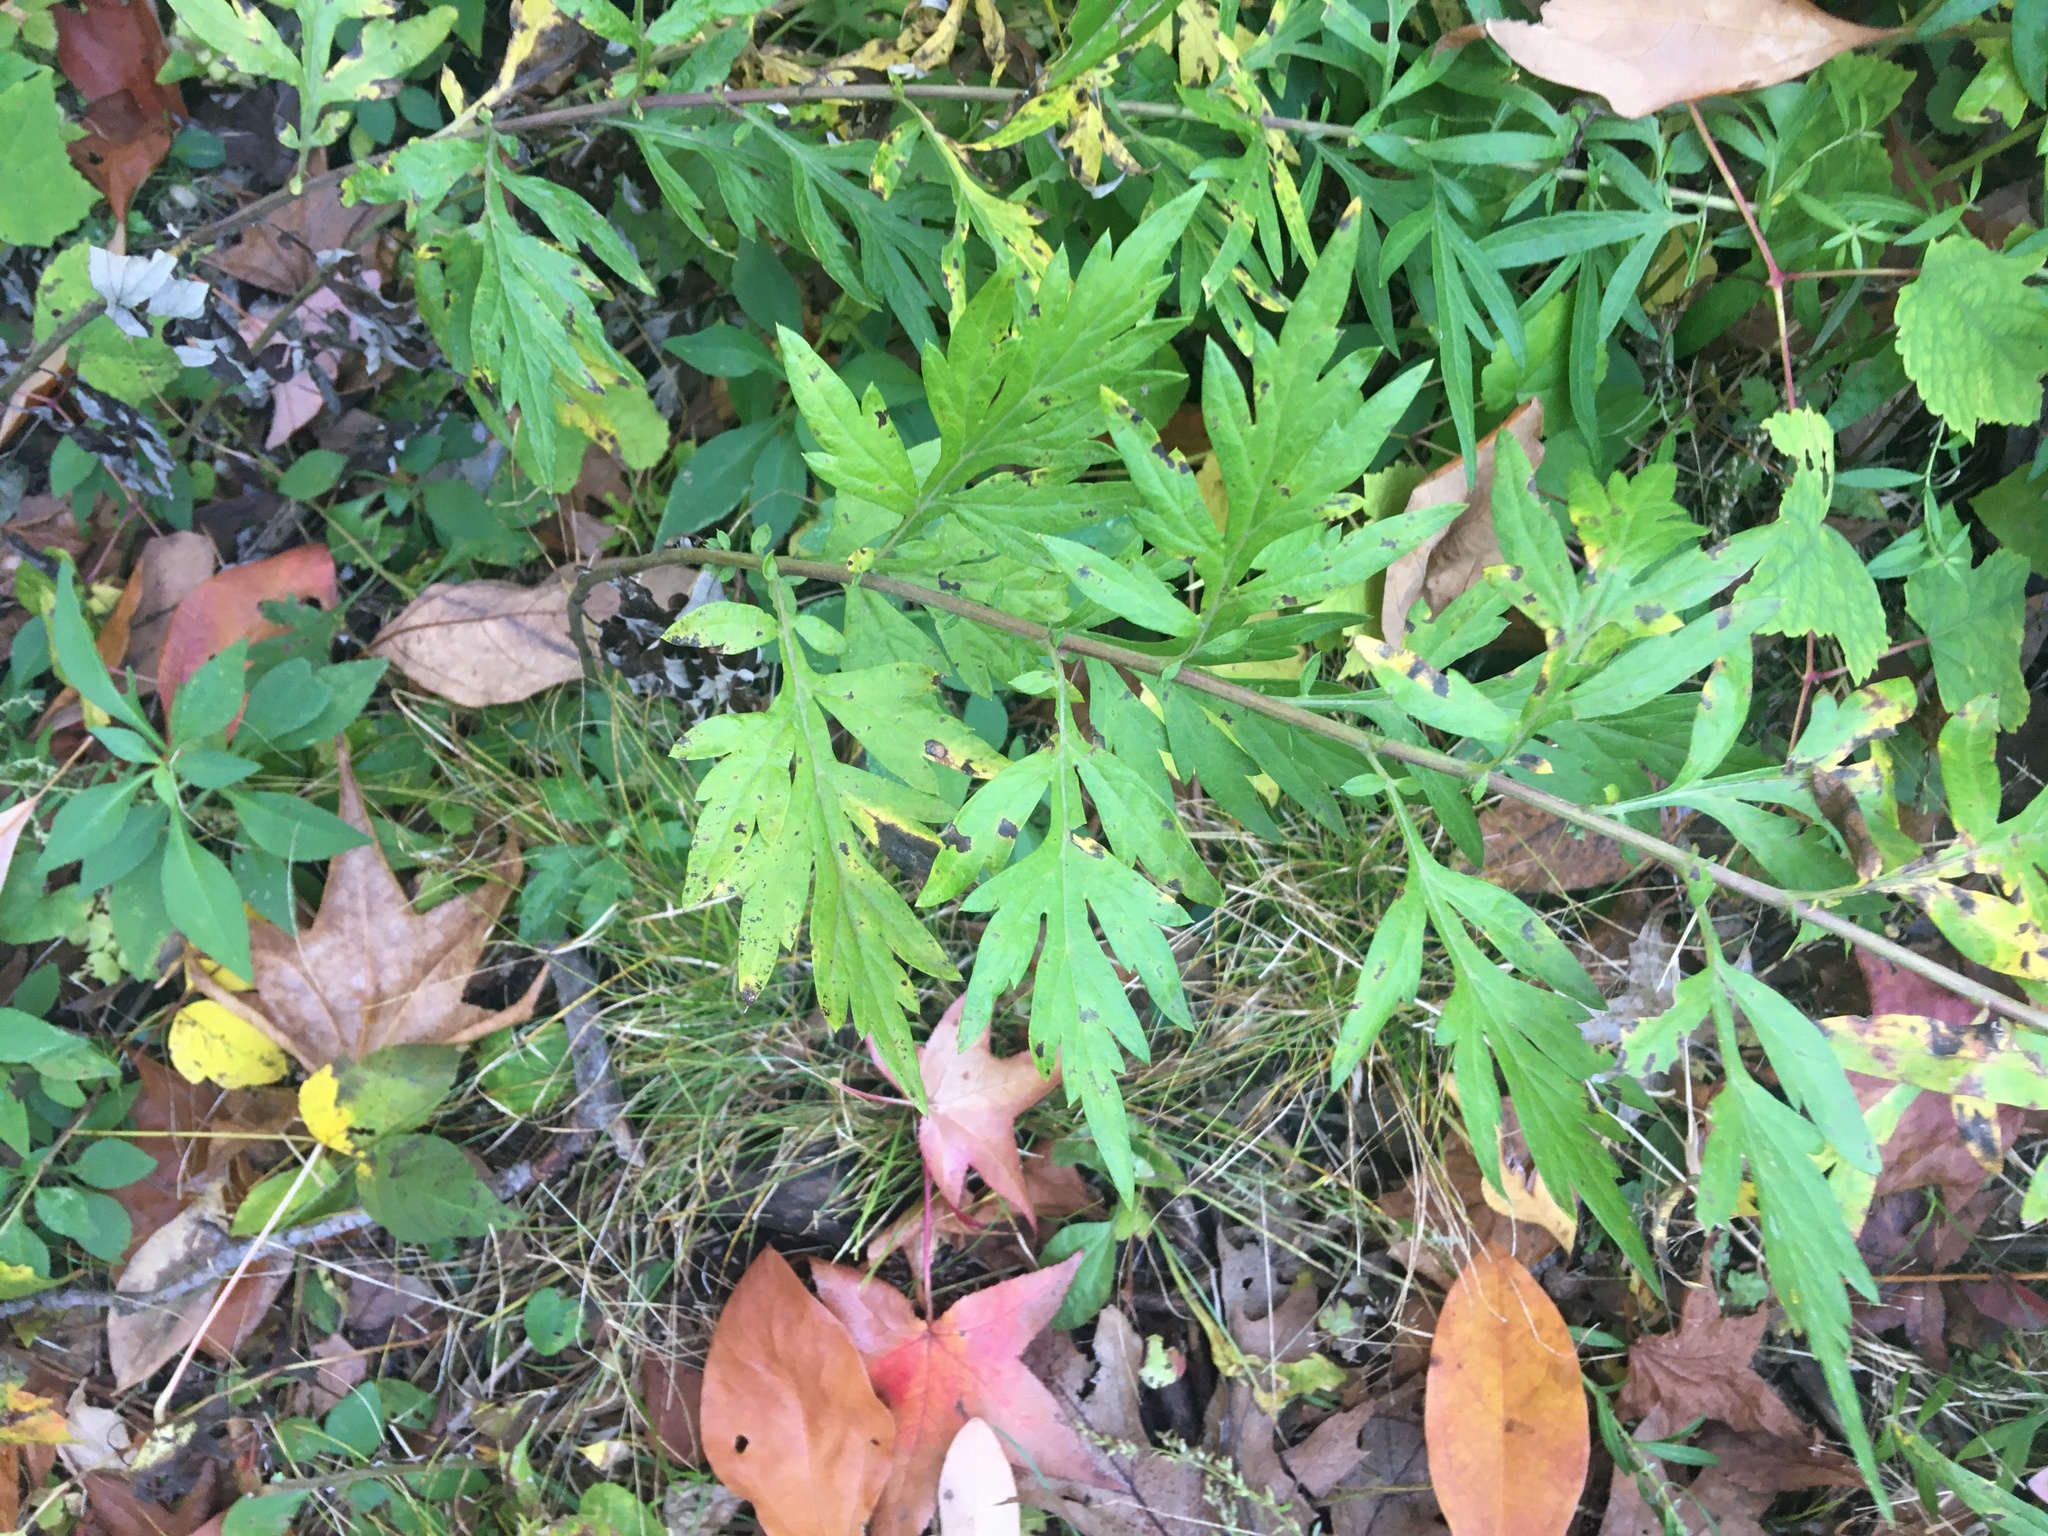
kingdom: Plantae
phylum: Tracheophyta
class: Magnoliopsida
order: Asterales
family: Asteraceae
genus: Artemisia
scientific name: Artemisia vulgaris
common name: Mugwort
